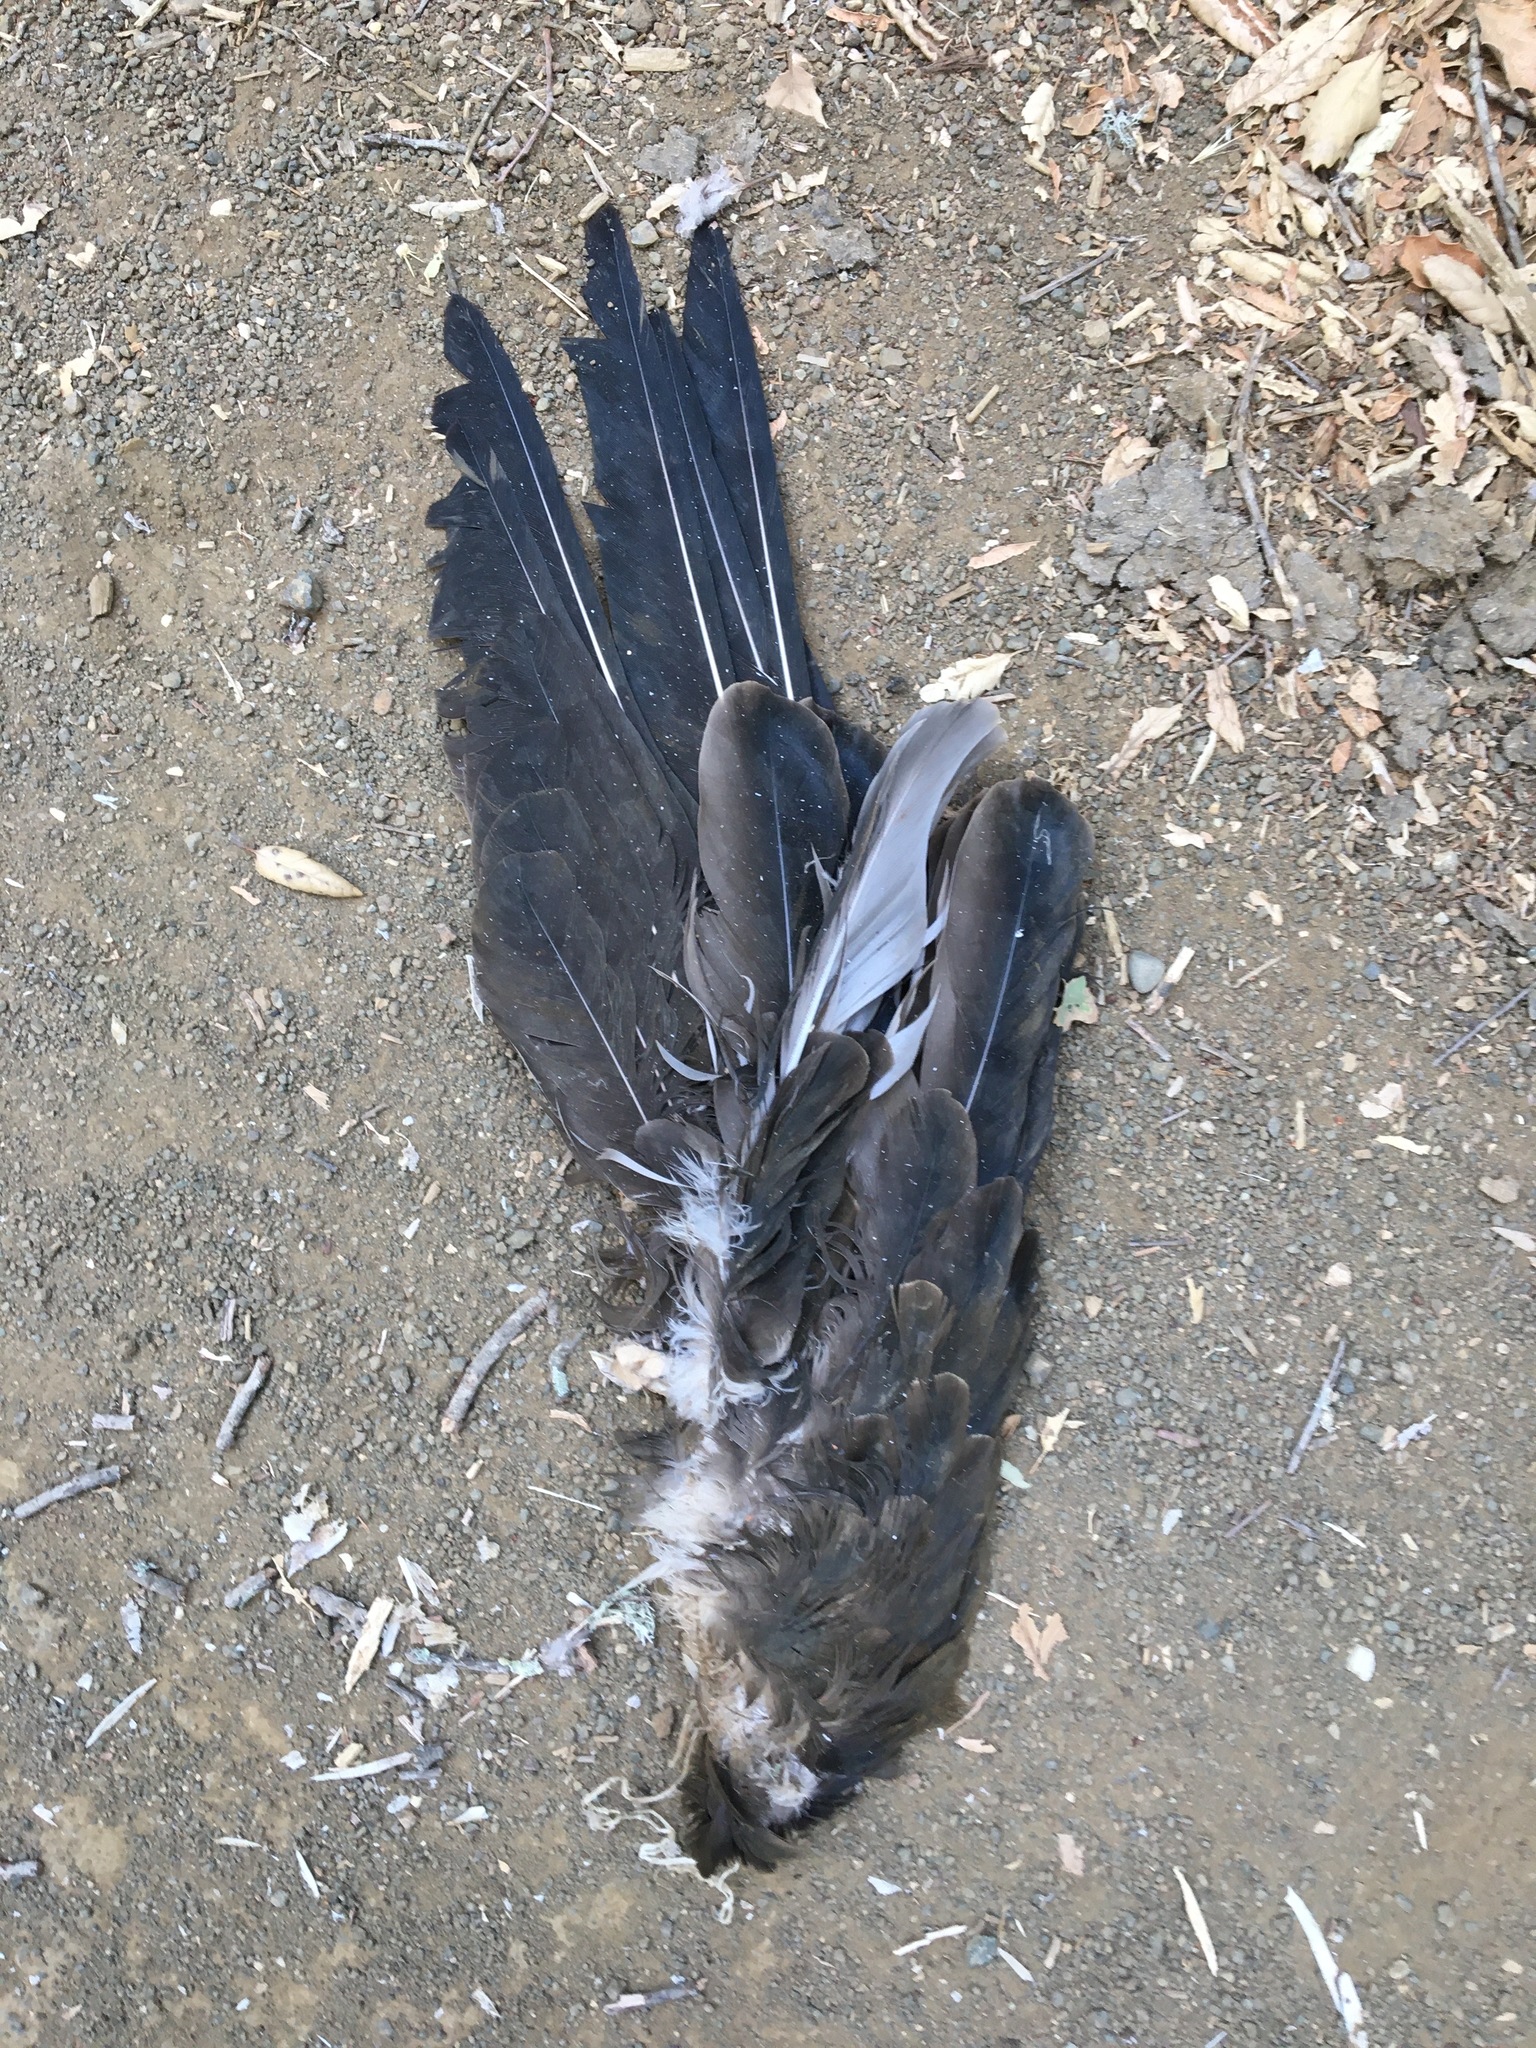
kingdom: Animalia
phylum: Chordata
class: Aves
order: Accipitriformes
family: Cathartidae
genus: Cathartes
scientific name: Cathartes aura
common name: Turkey vulture
